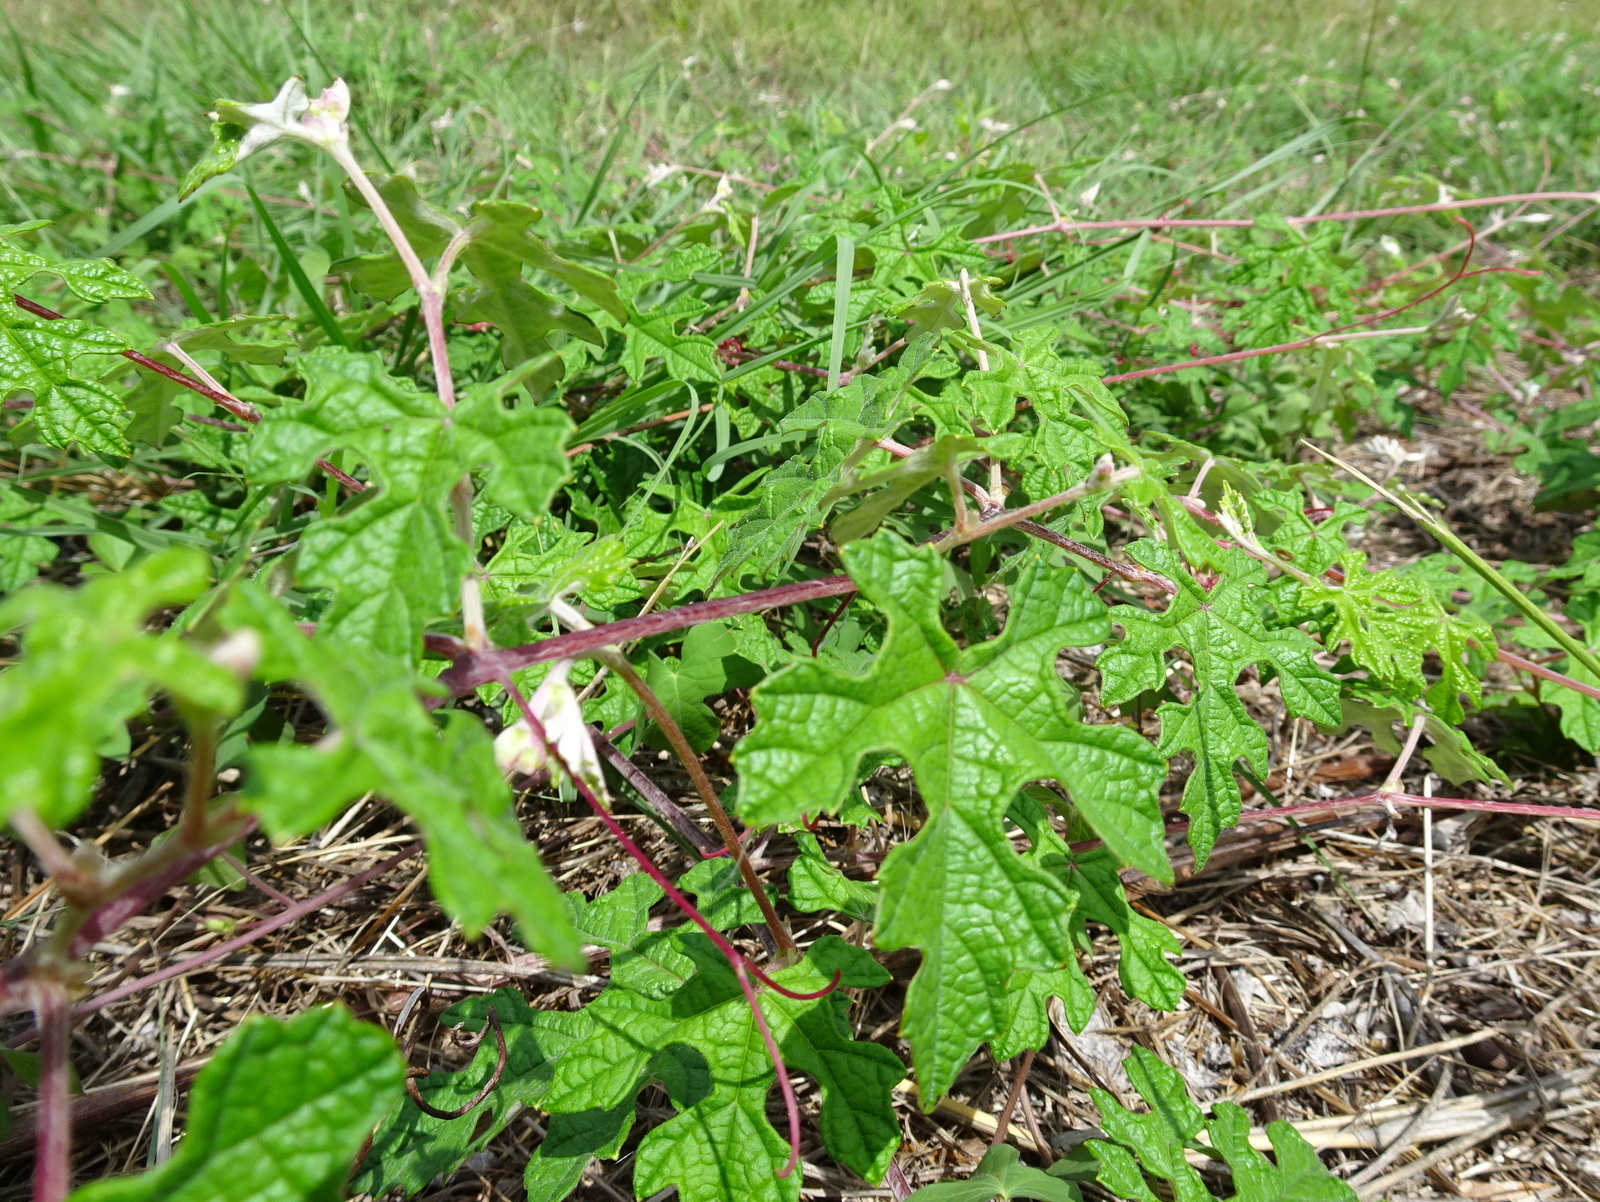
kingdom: Plantae
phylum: Tracheophyta
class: Magnoliopsida
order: Vitales
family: Vitaceae
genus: Vitis
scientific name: Vitis mustangensis
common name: Mustang grape
